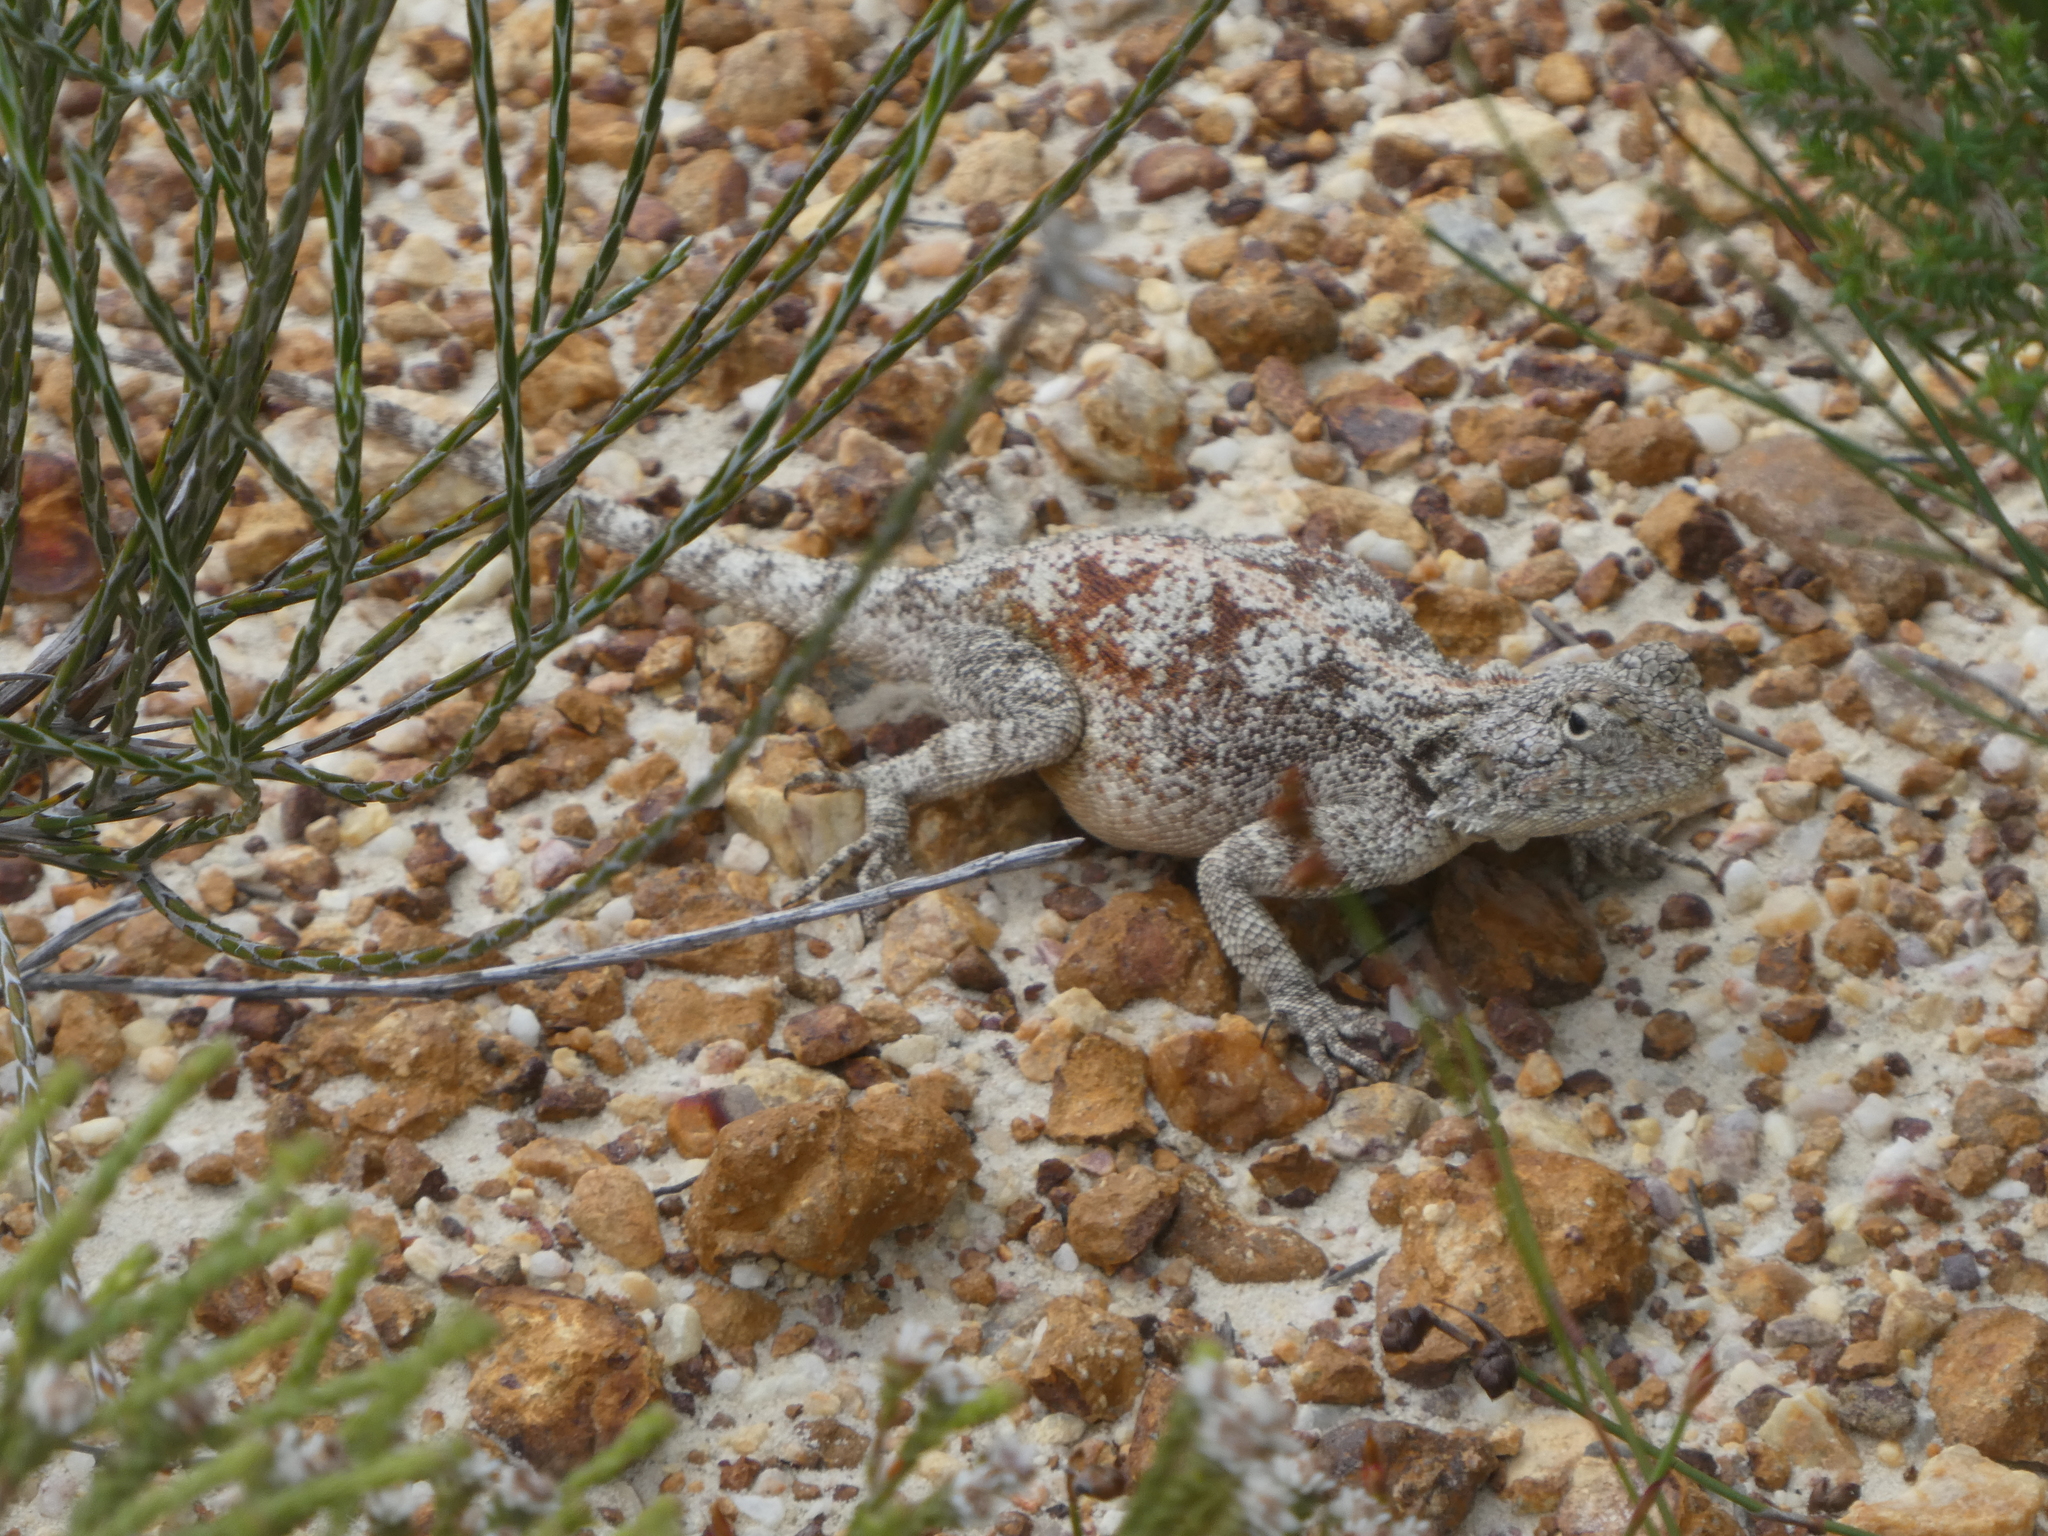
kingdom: Animalia
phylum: Chordata
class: Squamata
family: Agamidae
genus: Agama
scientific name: Agama atra
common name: Southern african rock agama
